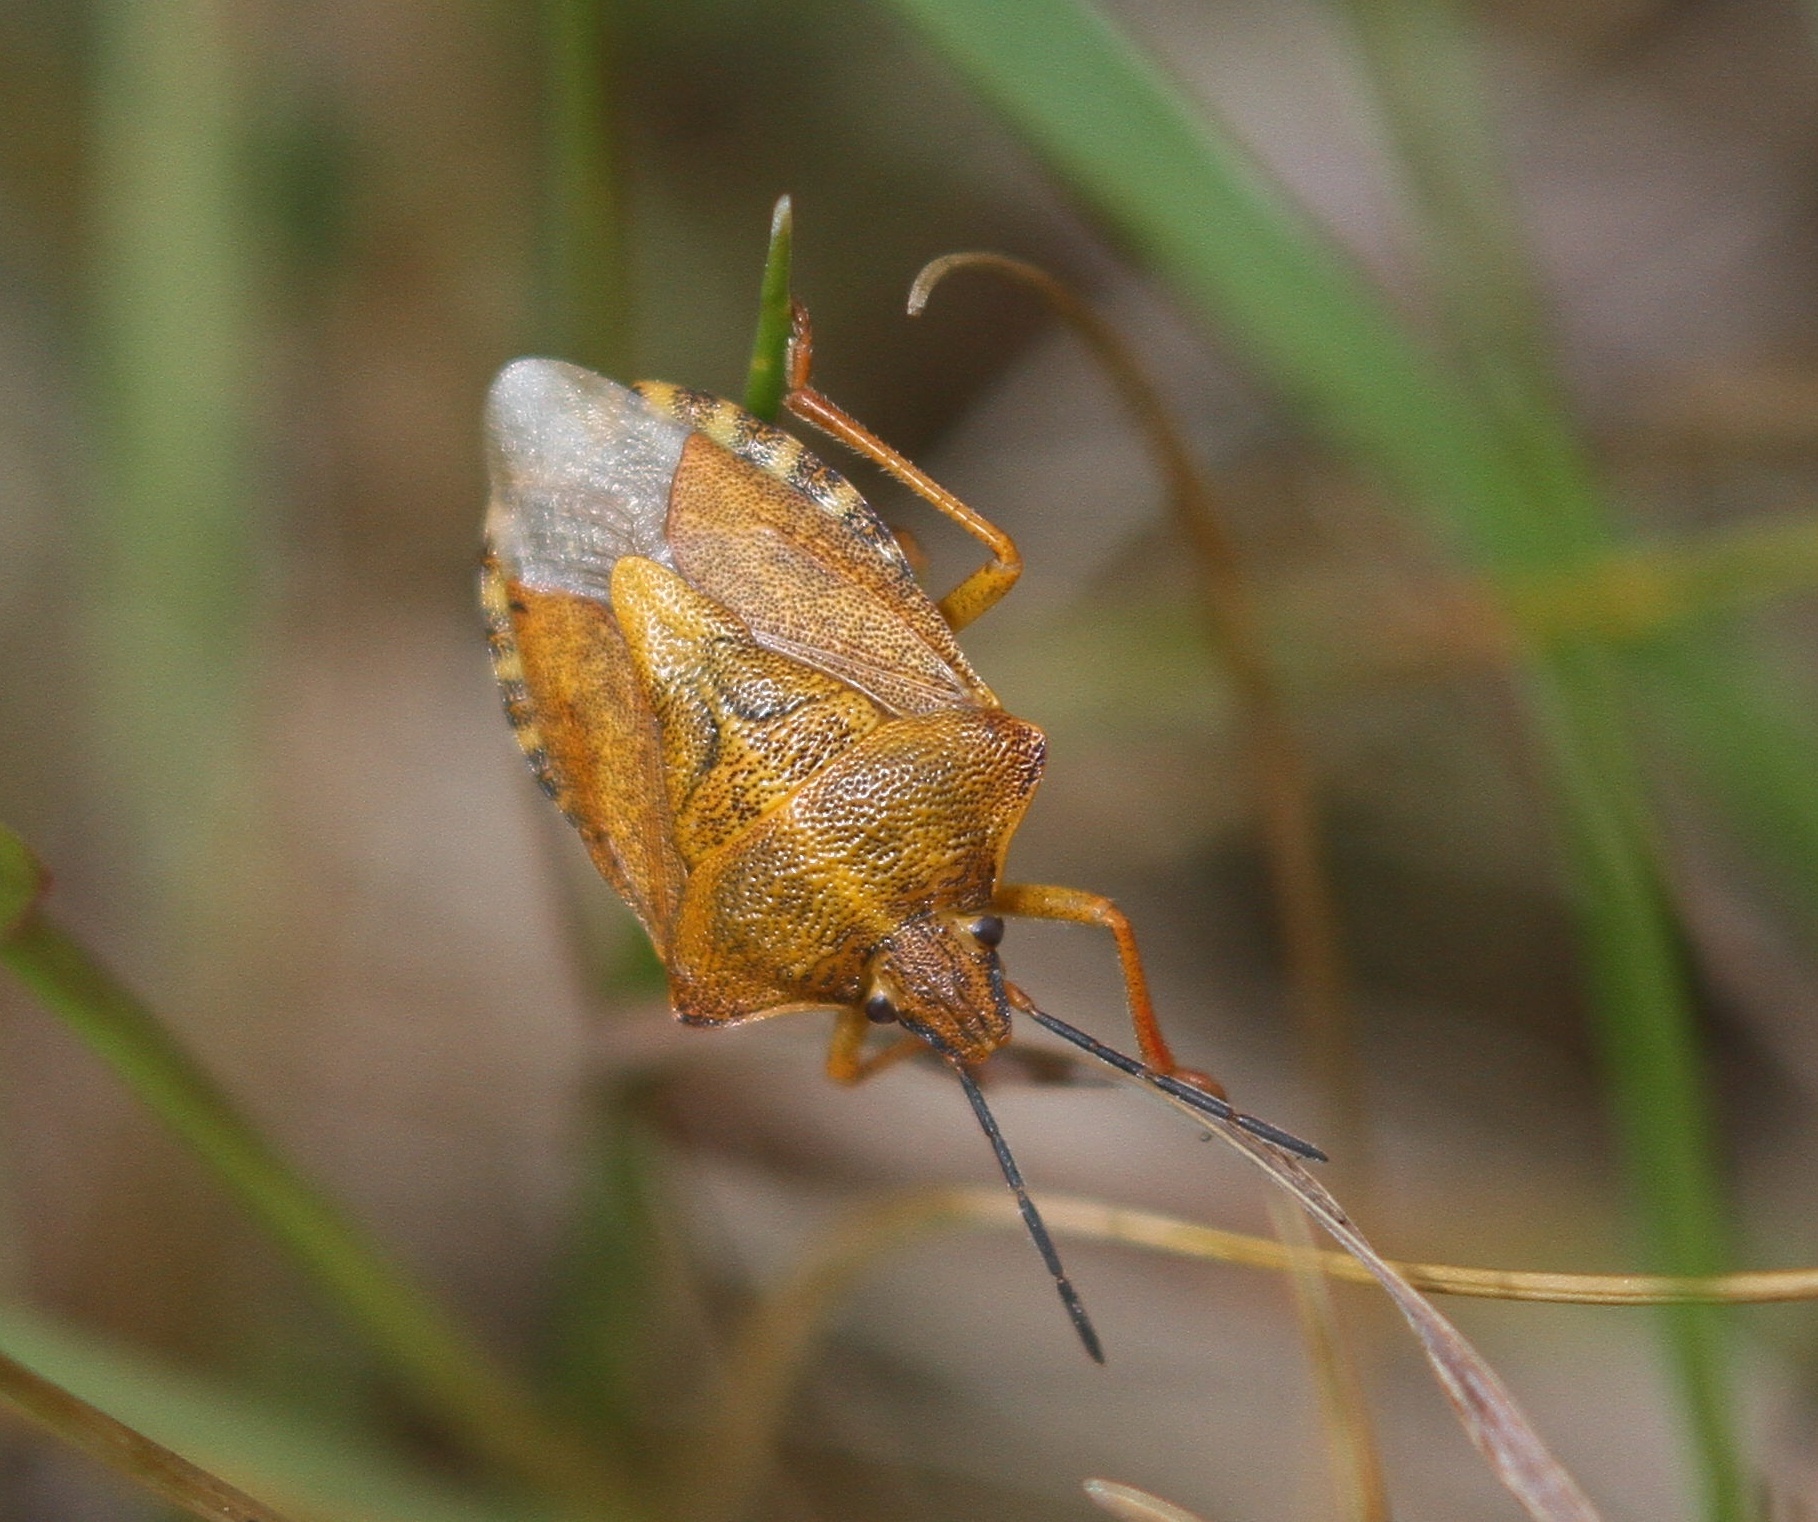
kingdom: Animalia
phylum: Arthropoda
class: Insecta
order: Hemiptera
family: Pentatomidae
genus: Carpocoris
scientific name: Carpocoris purpureipennis
